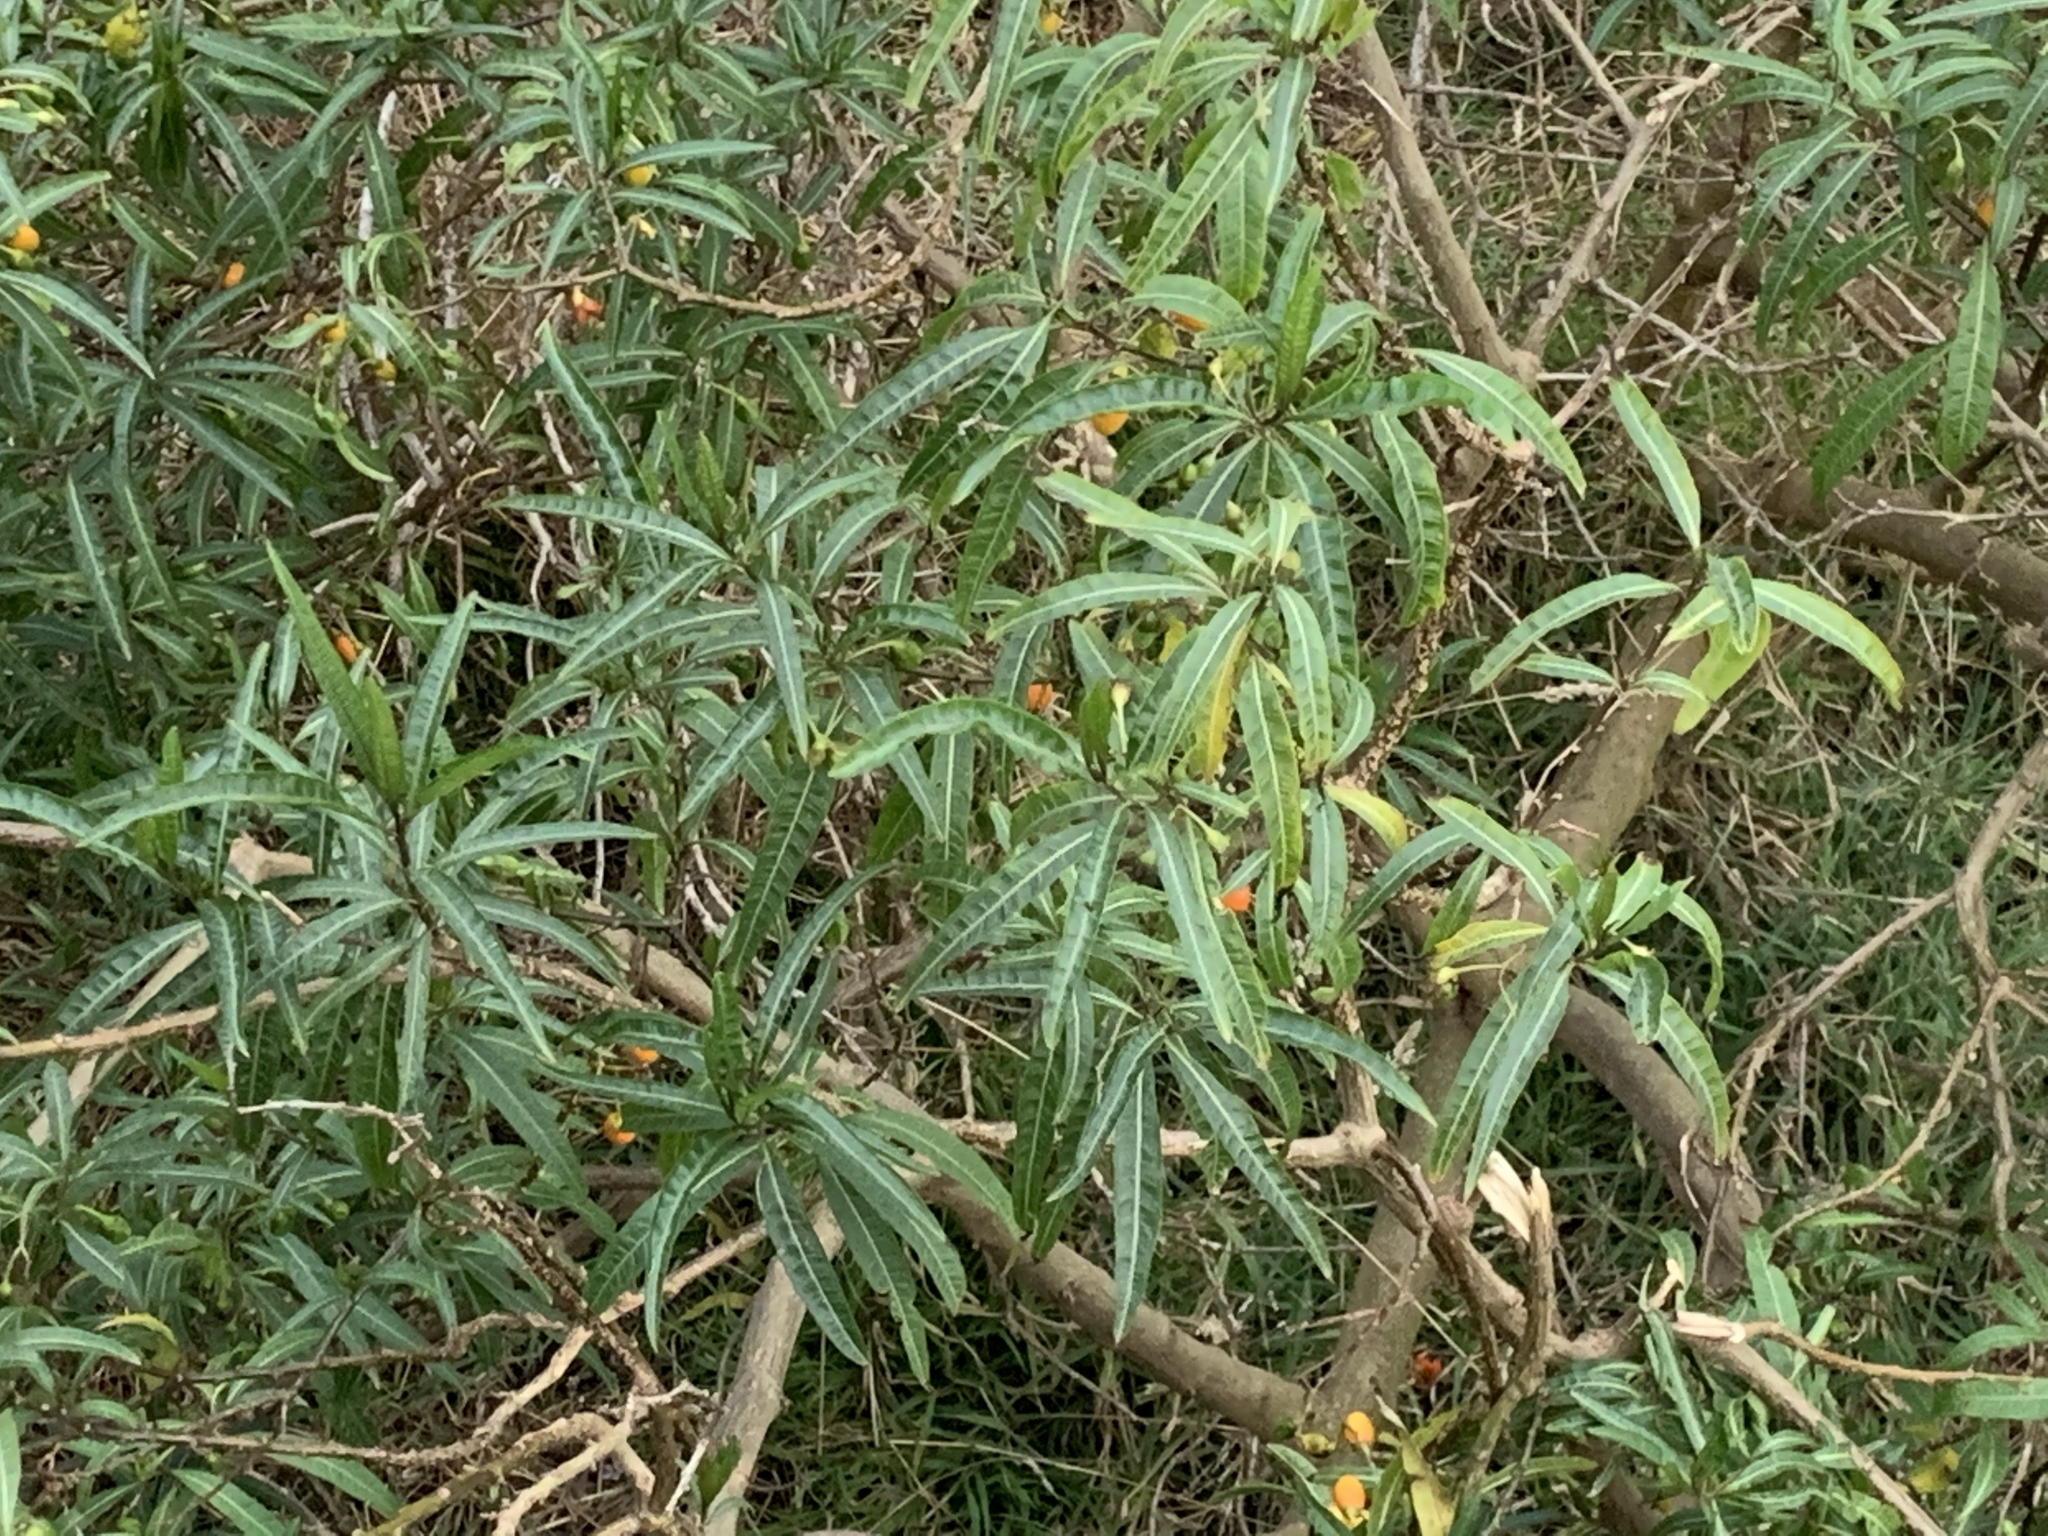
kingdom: Plantae
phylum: Tracheophyta
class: Magnoliopsida
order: Solanales
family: Solanaceae
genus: Solanum
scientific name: Solanum aviculare
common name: New zealand nightshade
